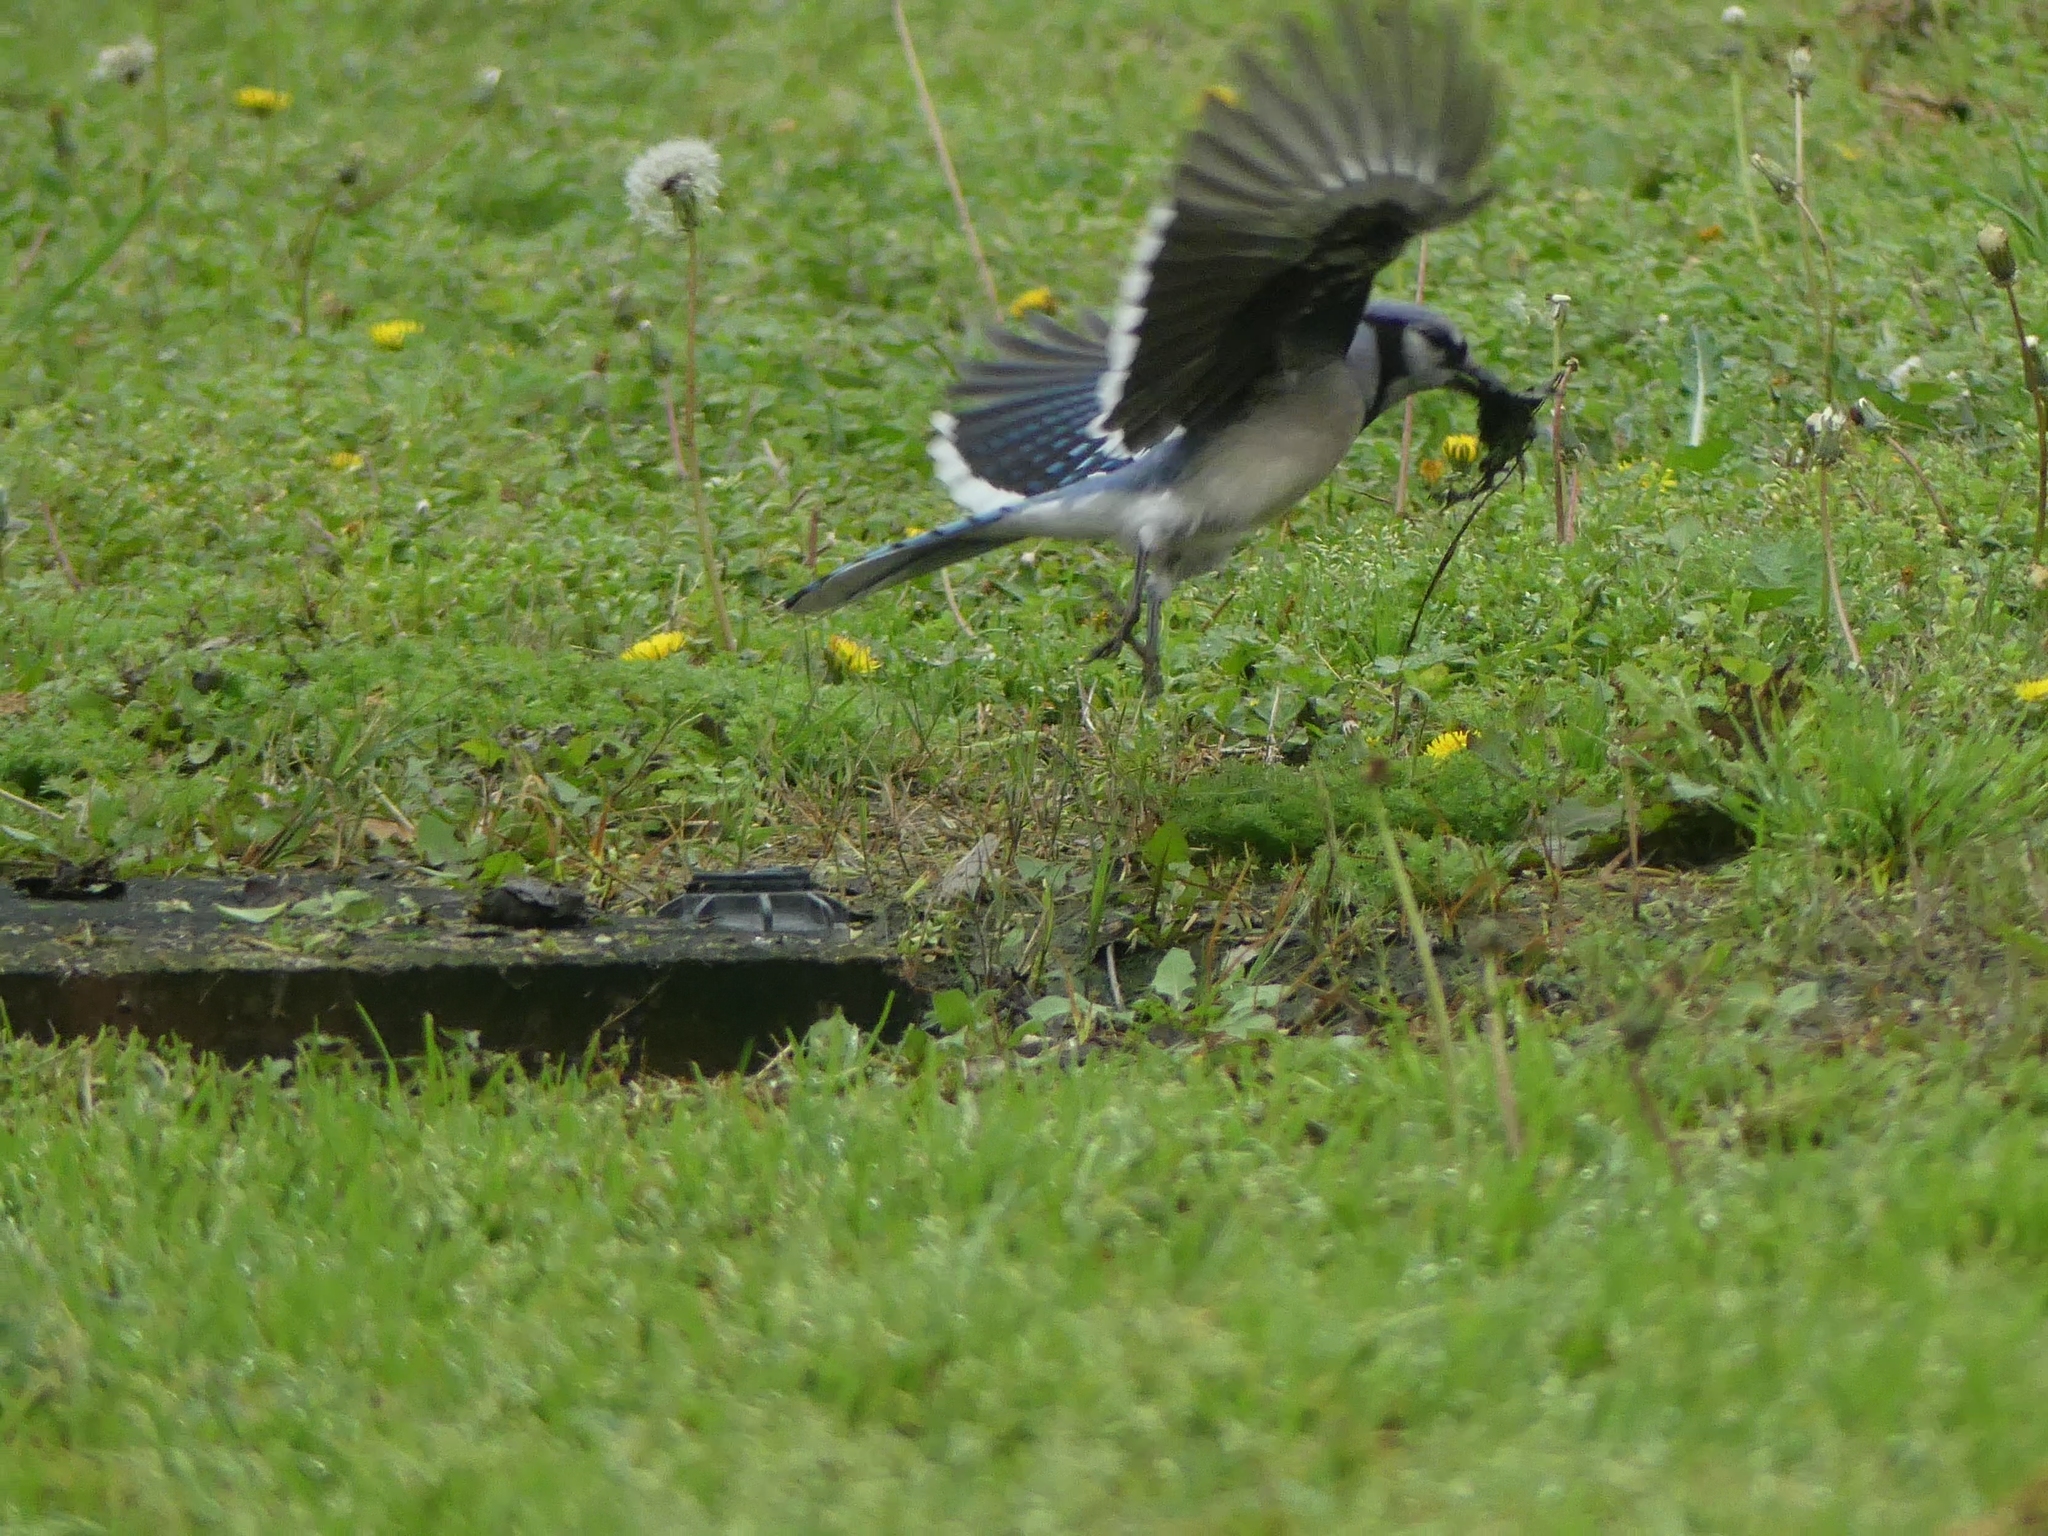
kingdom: Animalia
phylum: Chordata
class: Aves
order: Passeriformes
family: Corvidae
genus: Cyanocitta
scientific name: Cyanocitta cristata
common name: Blue jay
